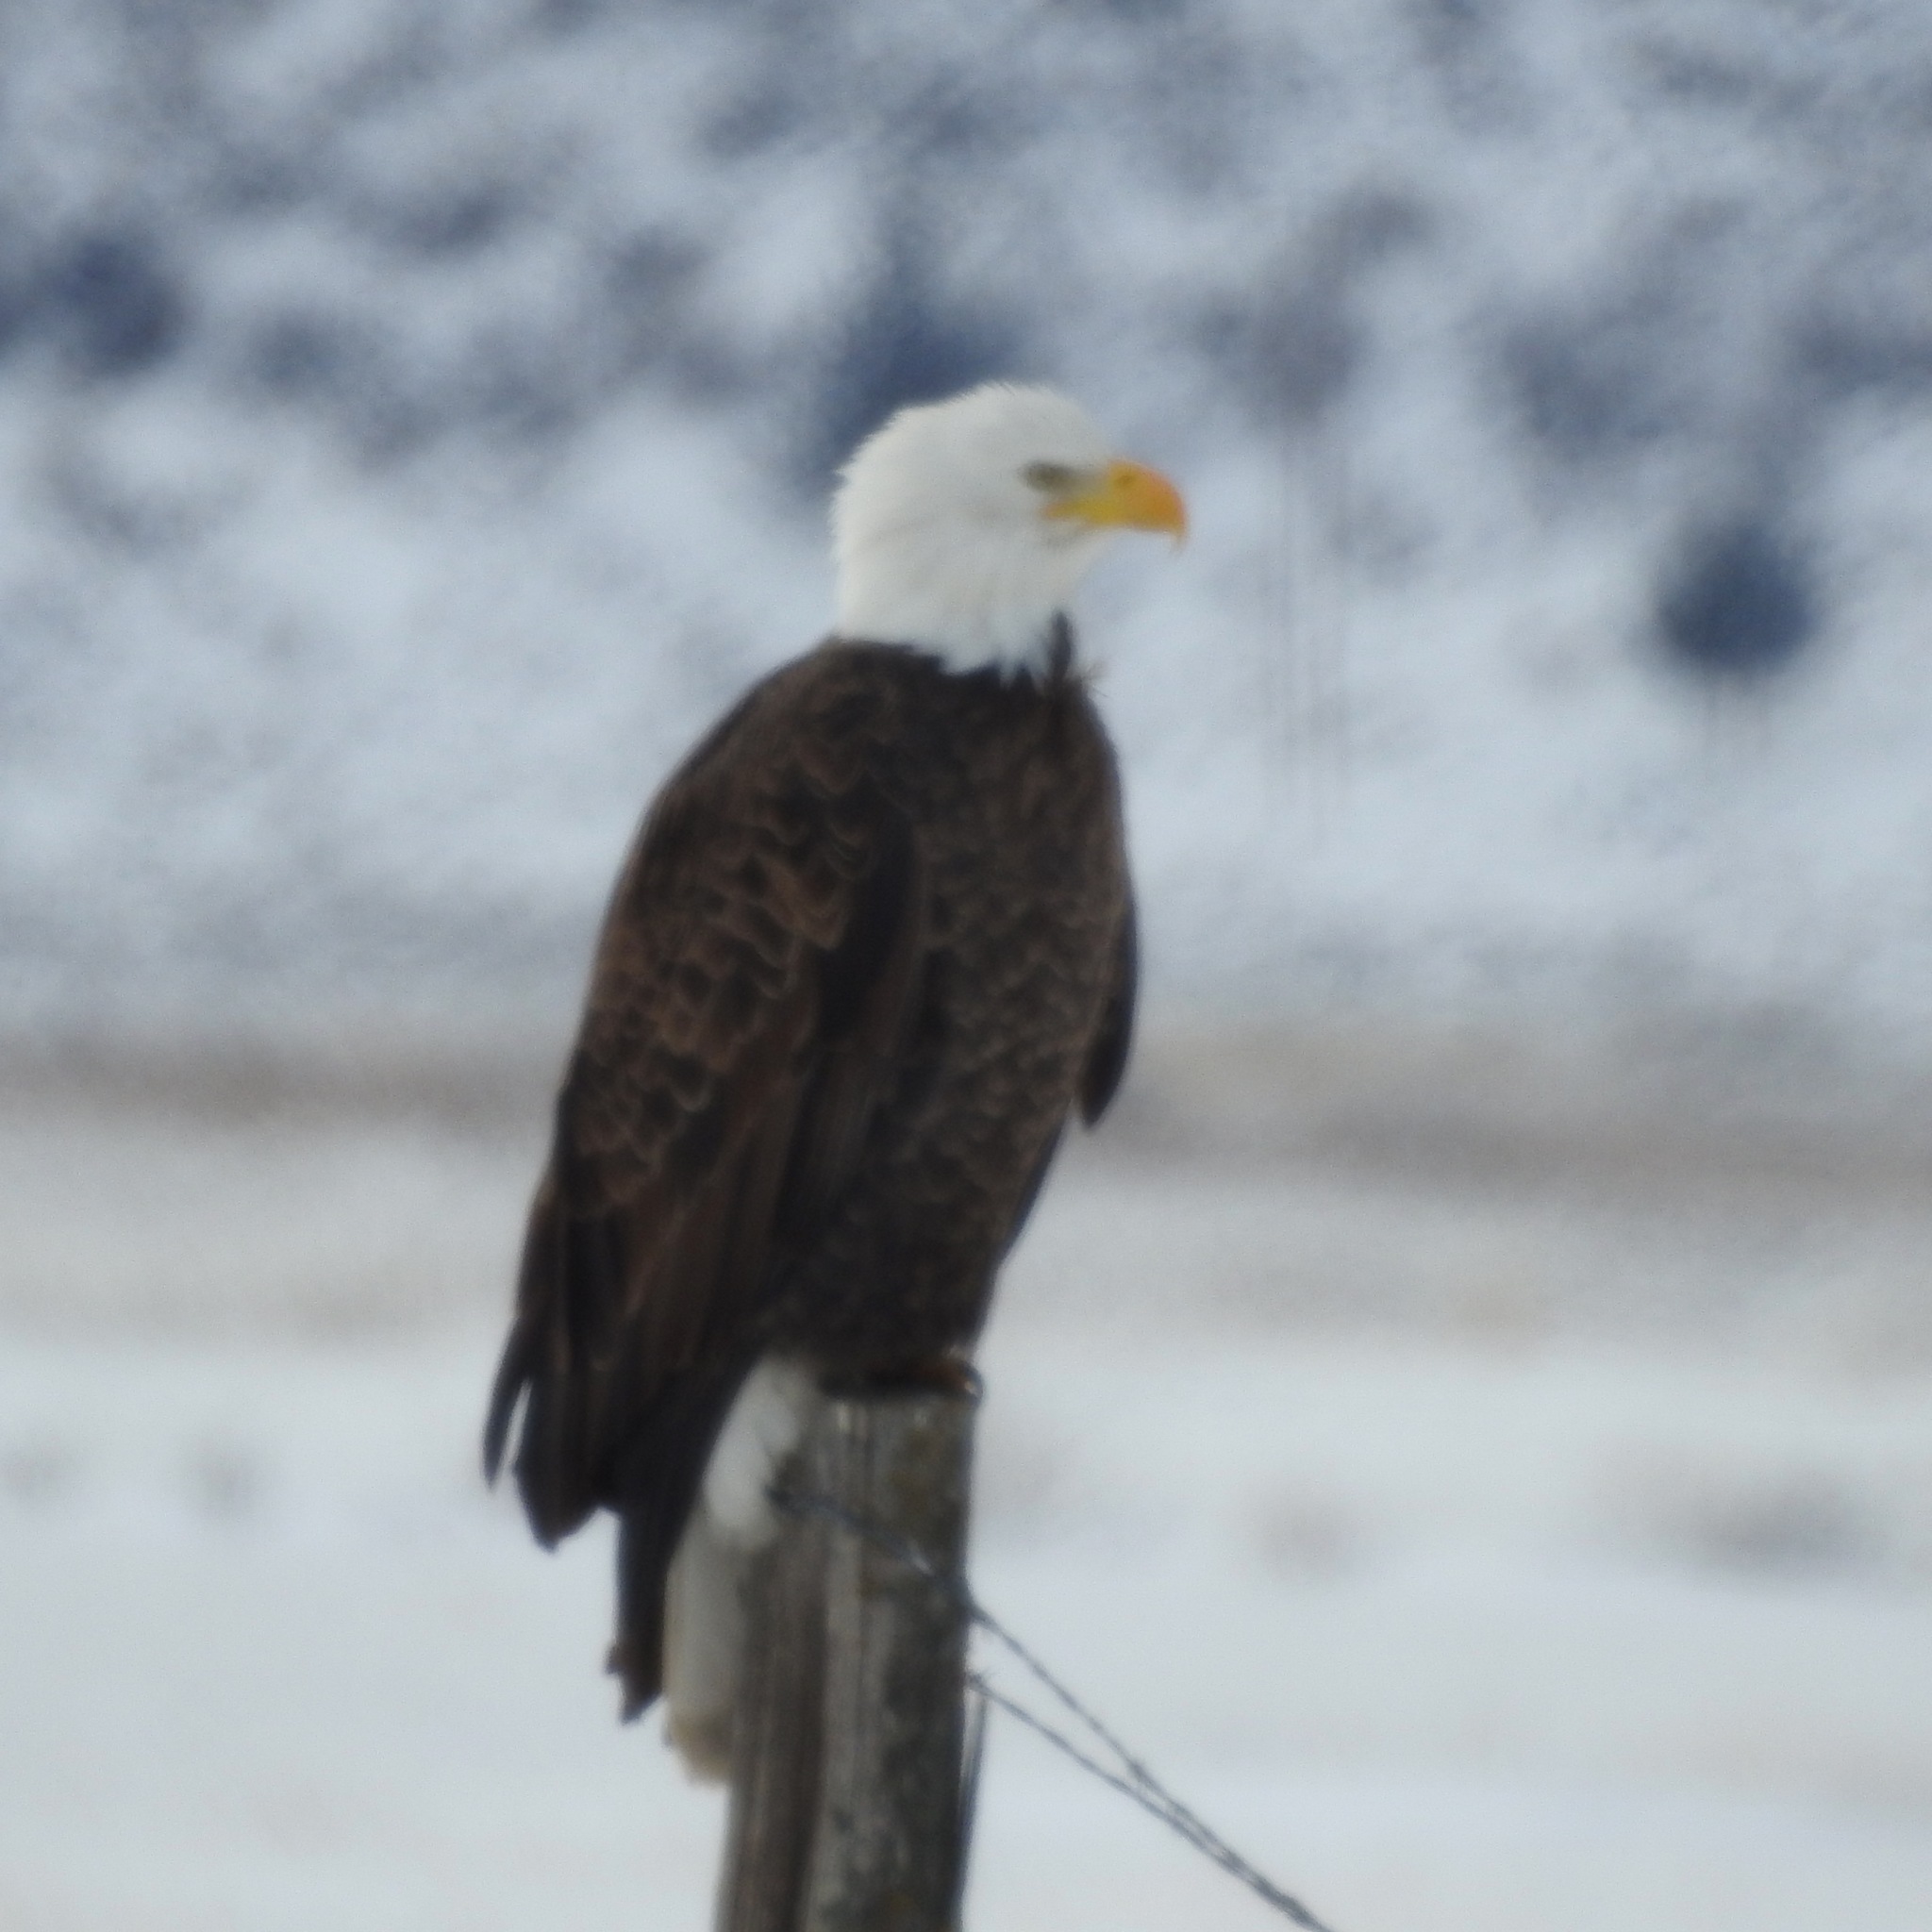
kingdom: Animalia
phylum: Chordata
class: Aves
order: Accipitriformes
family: Accipitridae
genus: Haliaeetus
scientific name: Haliaeetus leucocephalus
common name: Bald eagle
